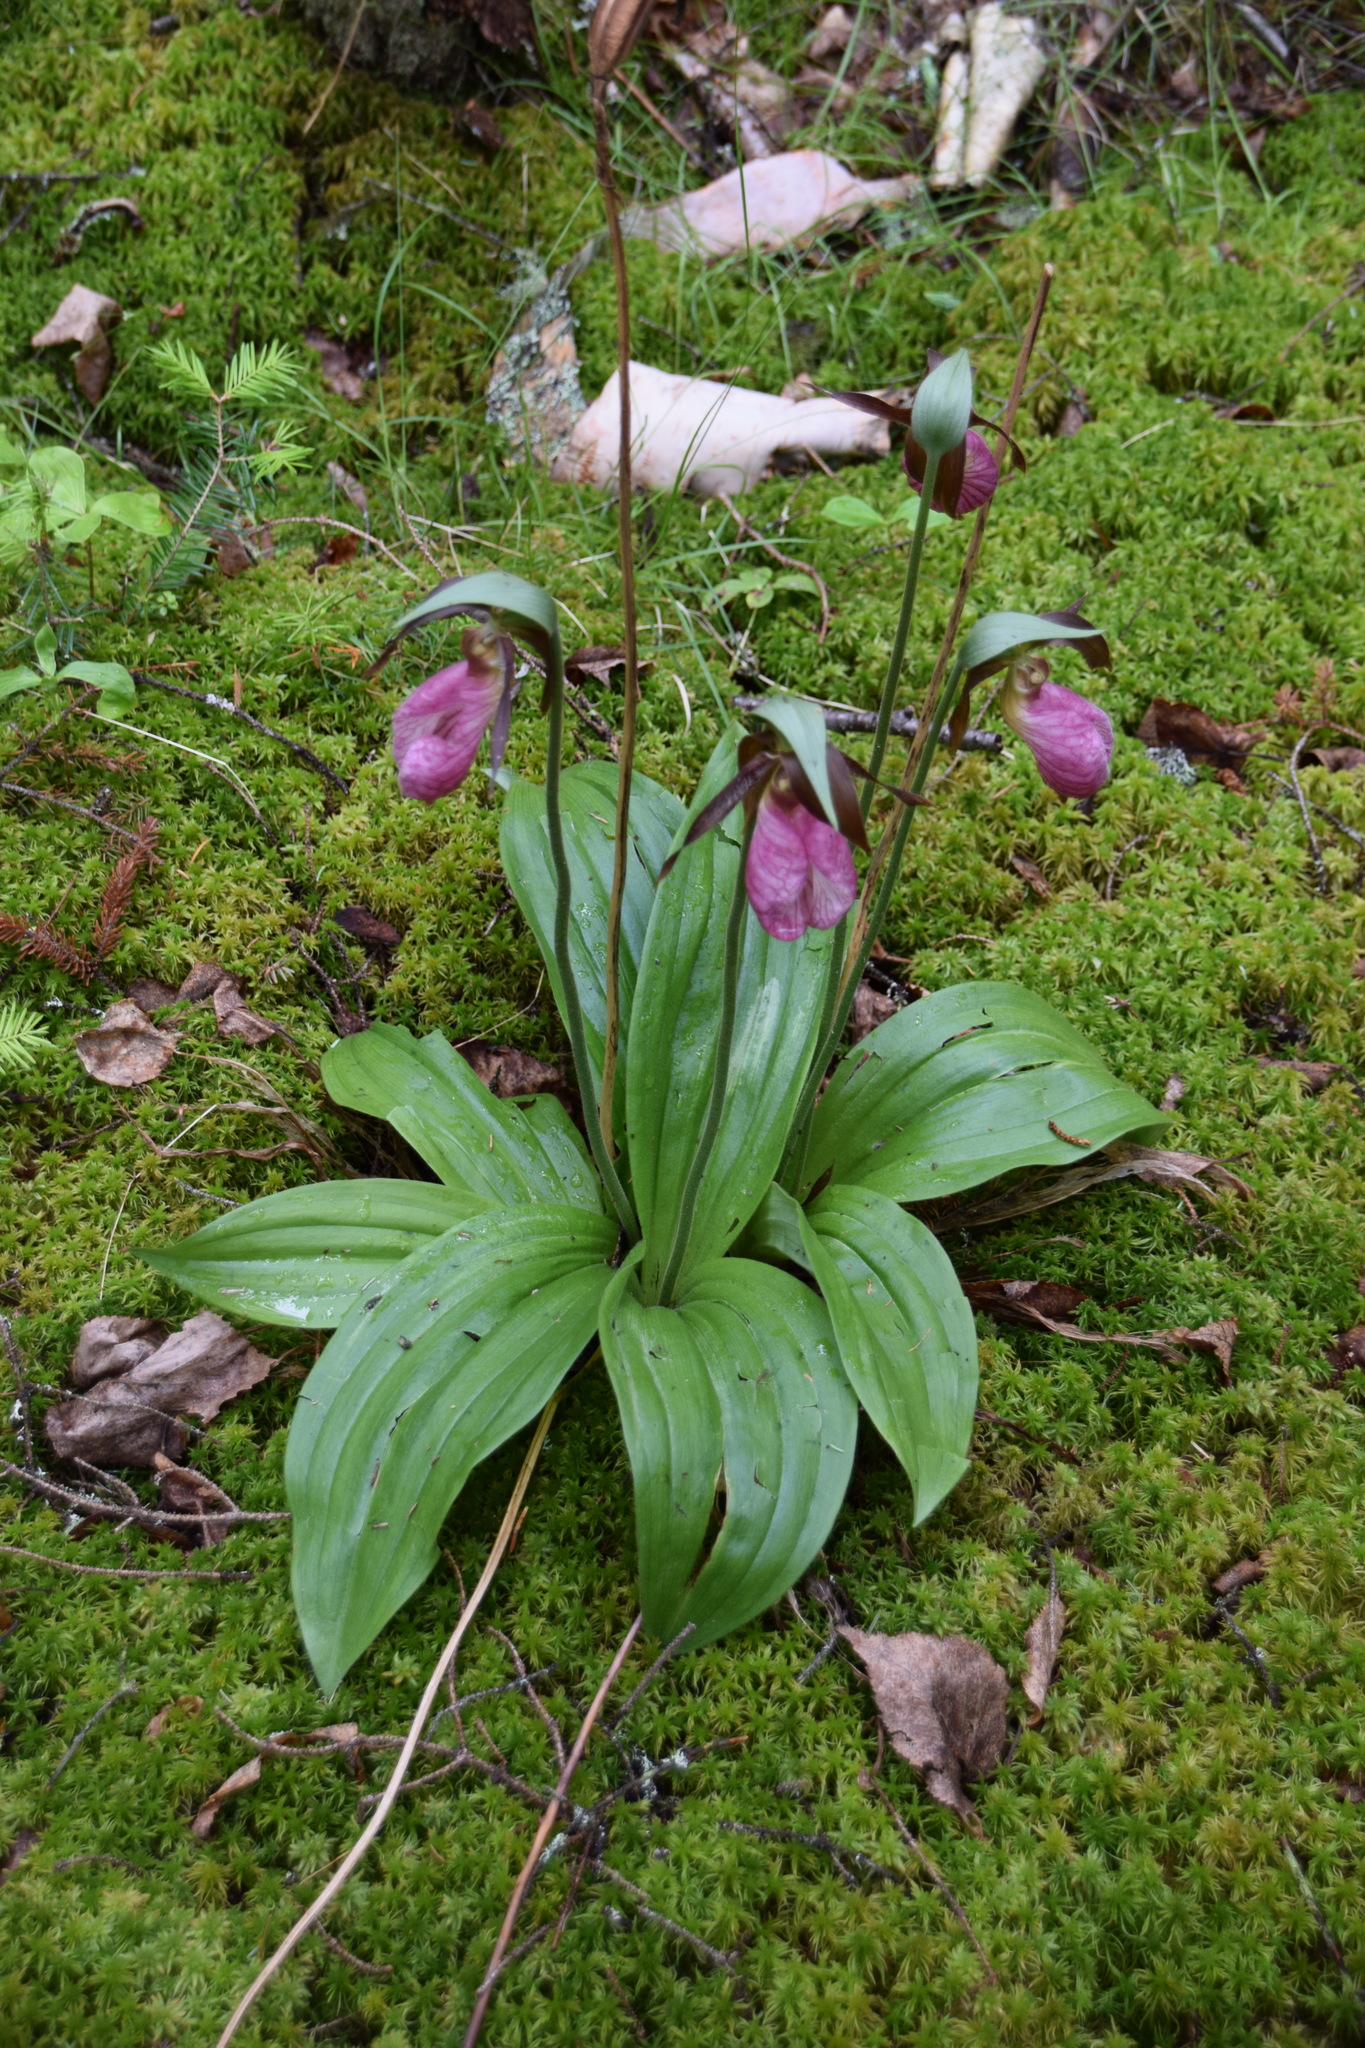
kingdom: Plantae
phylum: Tracheophyta
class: Liliopsida
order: Asparagales
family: Orchidaceae
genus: Cypripedium
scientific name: Cypripedium acaule
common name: Pink lady's-slipper
